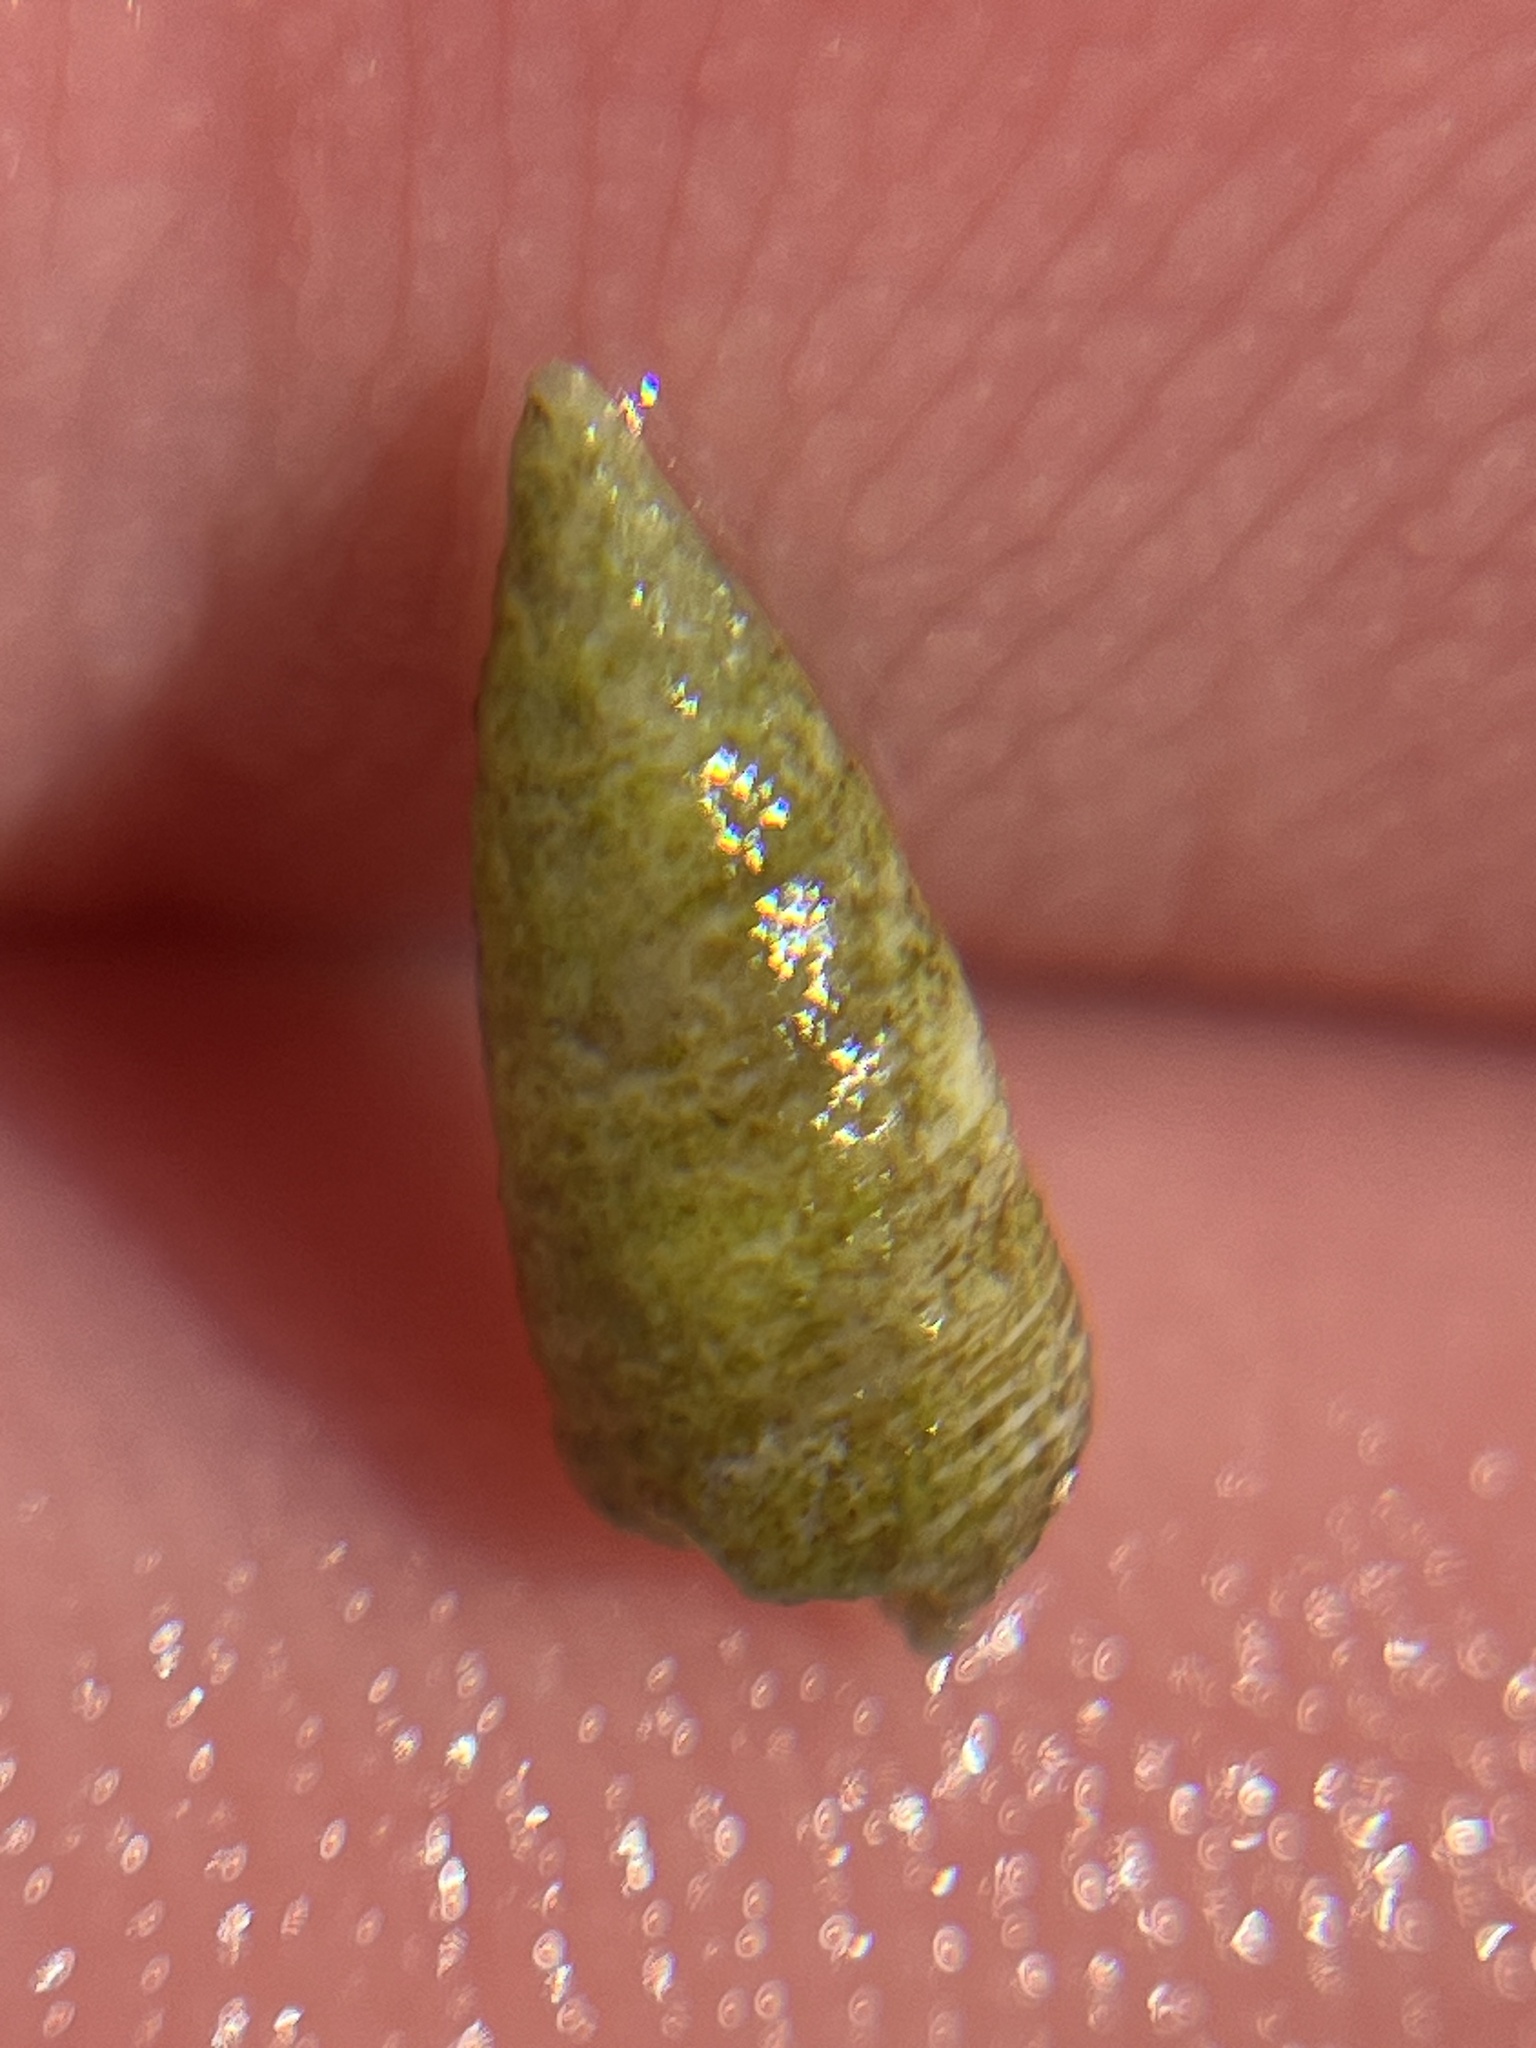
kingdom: Animalia
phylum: Mollusca
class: Gastropoda
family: Cerithiidae
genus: Cerithium
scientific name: Cerithium nesioticum
